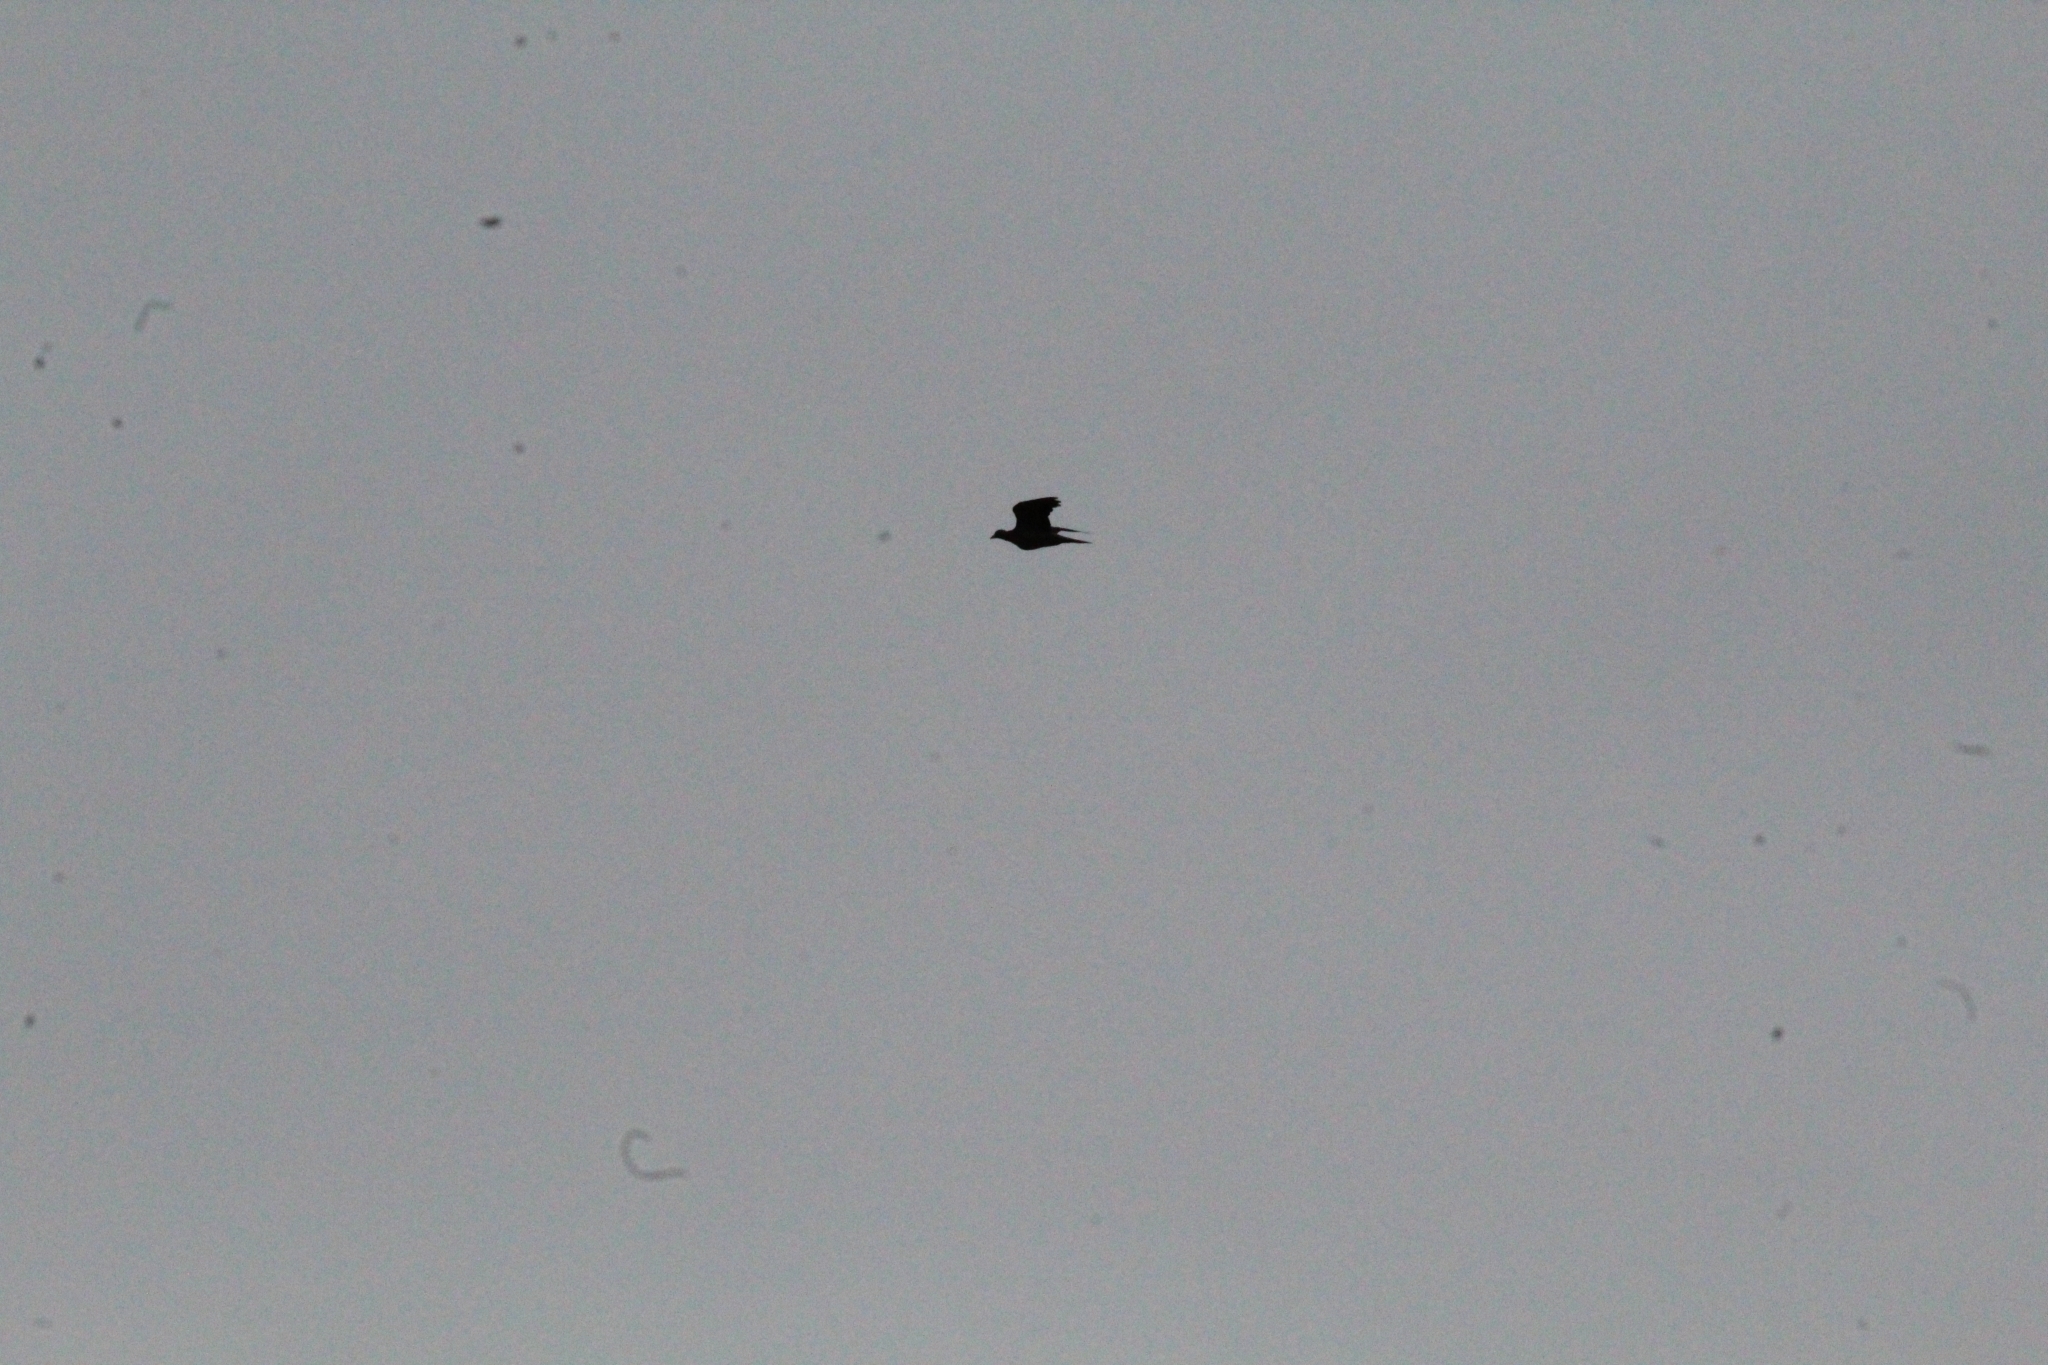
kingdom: Animalia
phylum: Chordata
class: Aves
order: Columbiformes
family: Columbidae
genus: Columba
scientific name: Columba palumbus
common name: Common wood pigeon
